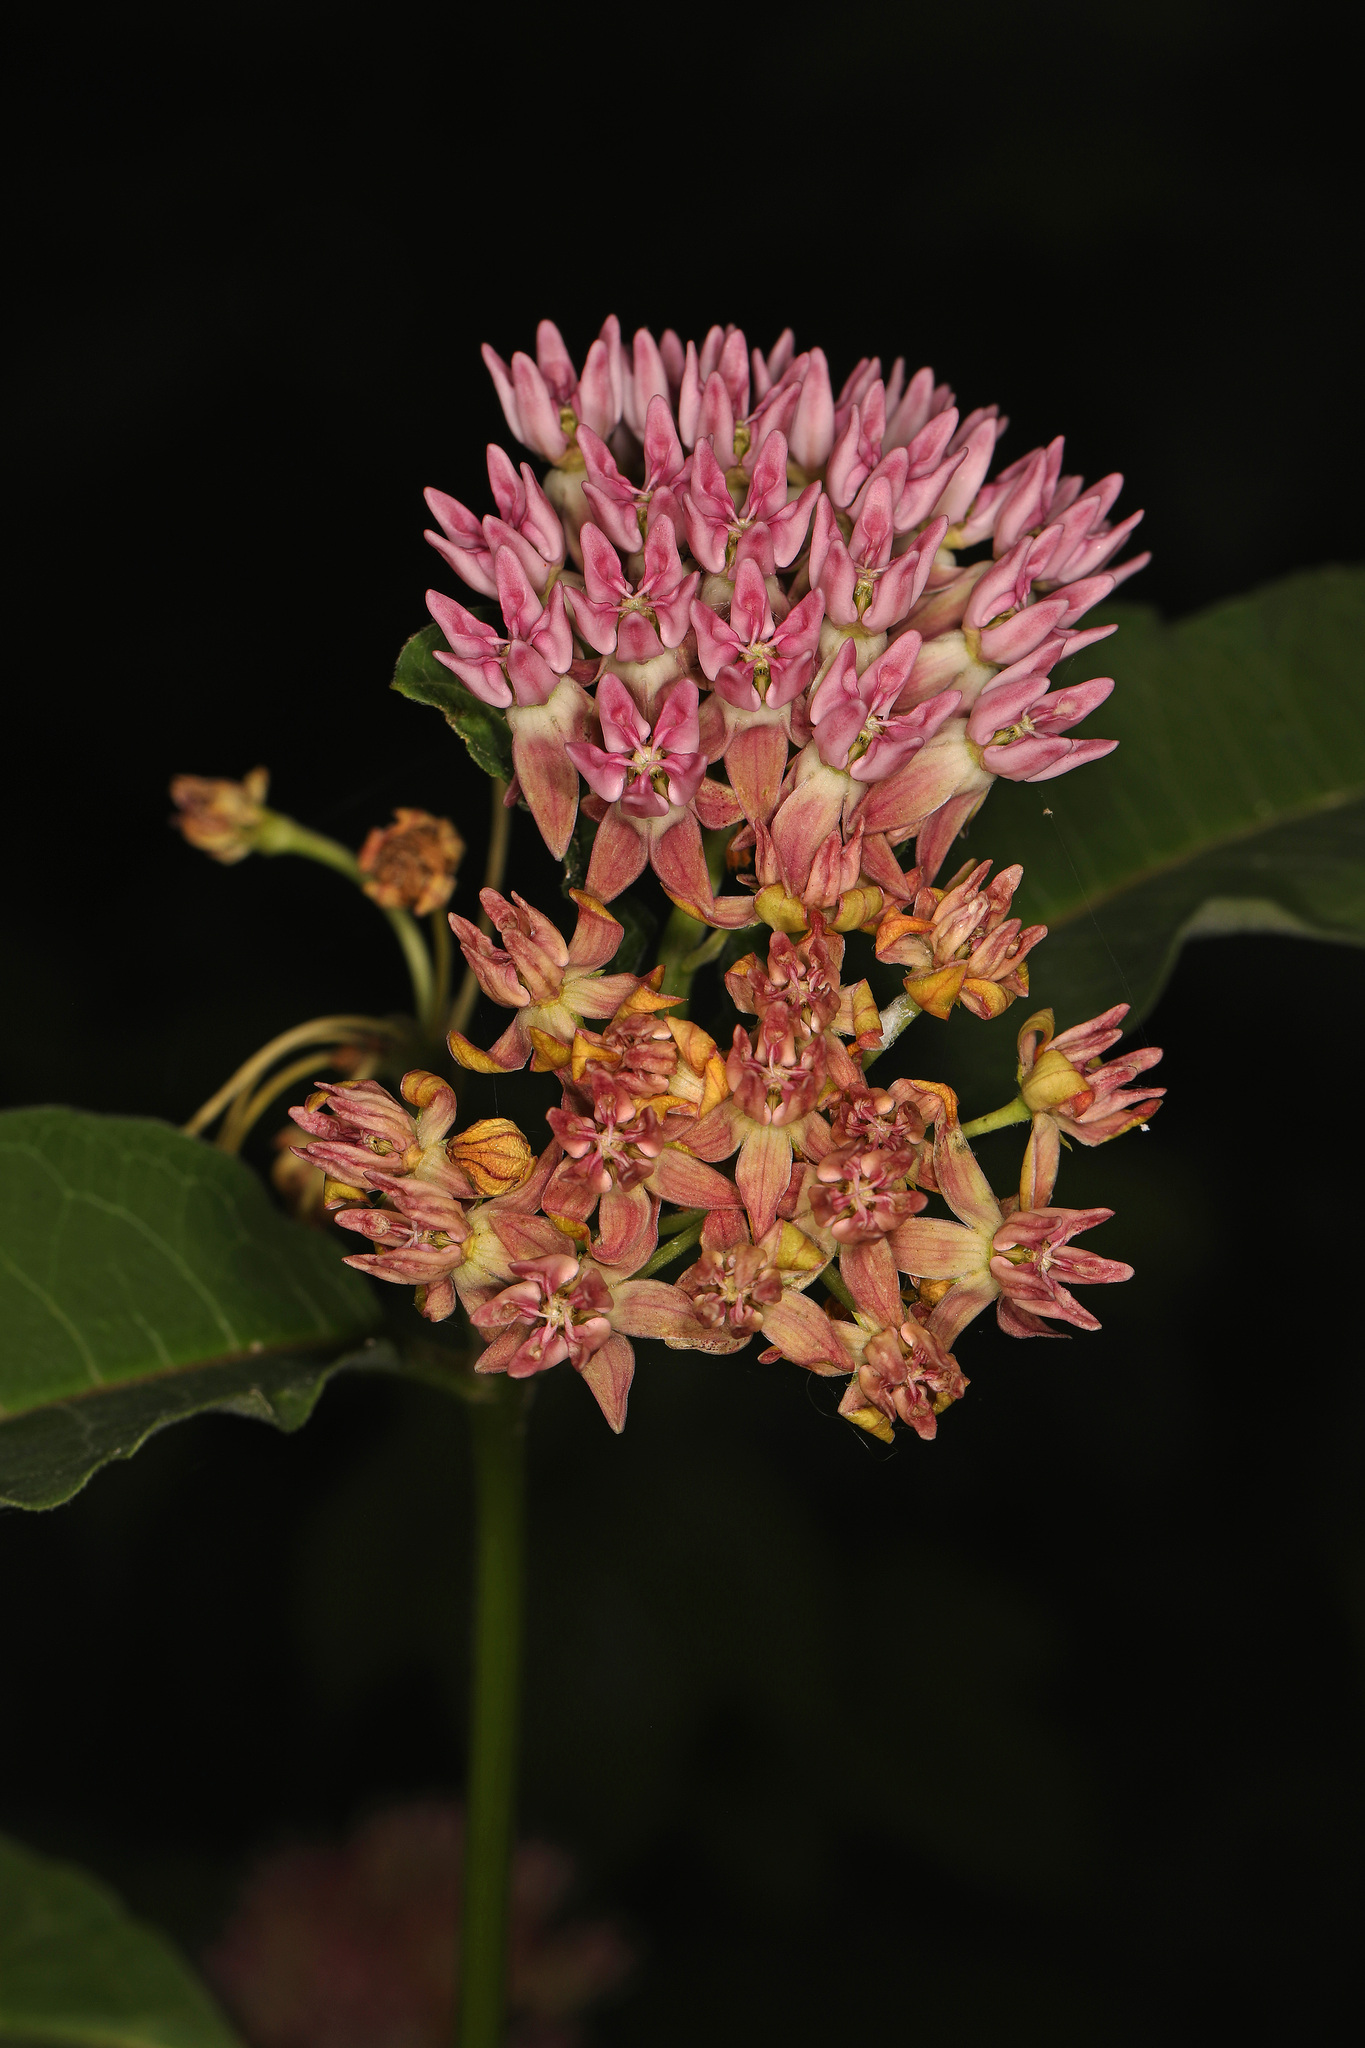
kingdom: Plantae
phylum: Tracheophyta
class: Magnoliopsida
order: Gentianales
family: Apocynaceae
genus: Asclepias
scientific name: Asclepias purpurascens
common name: Purple milkweed
